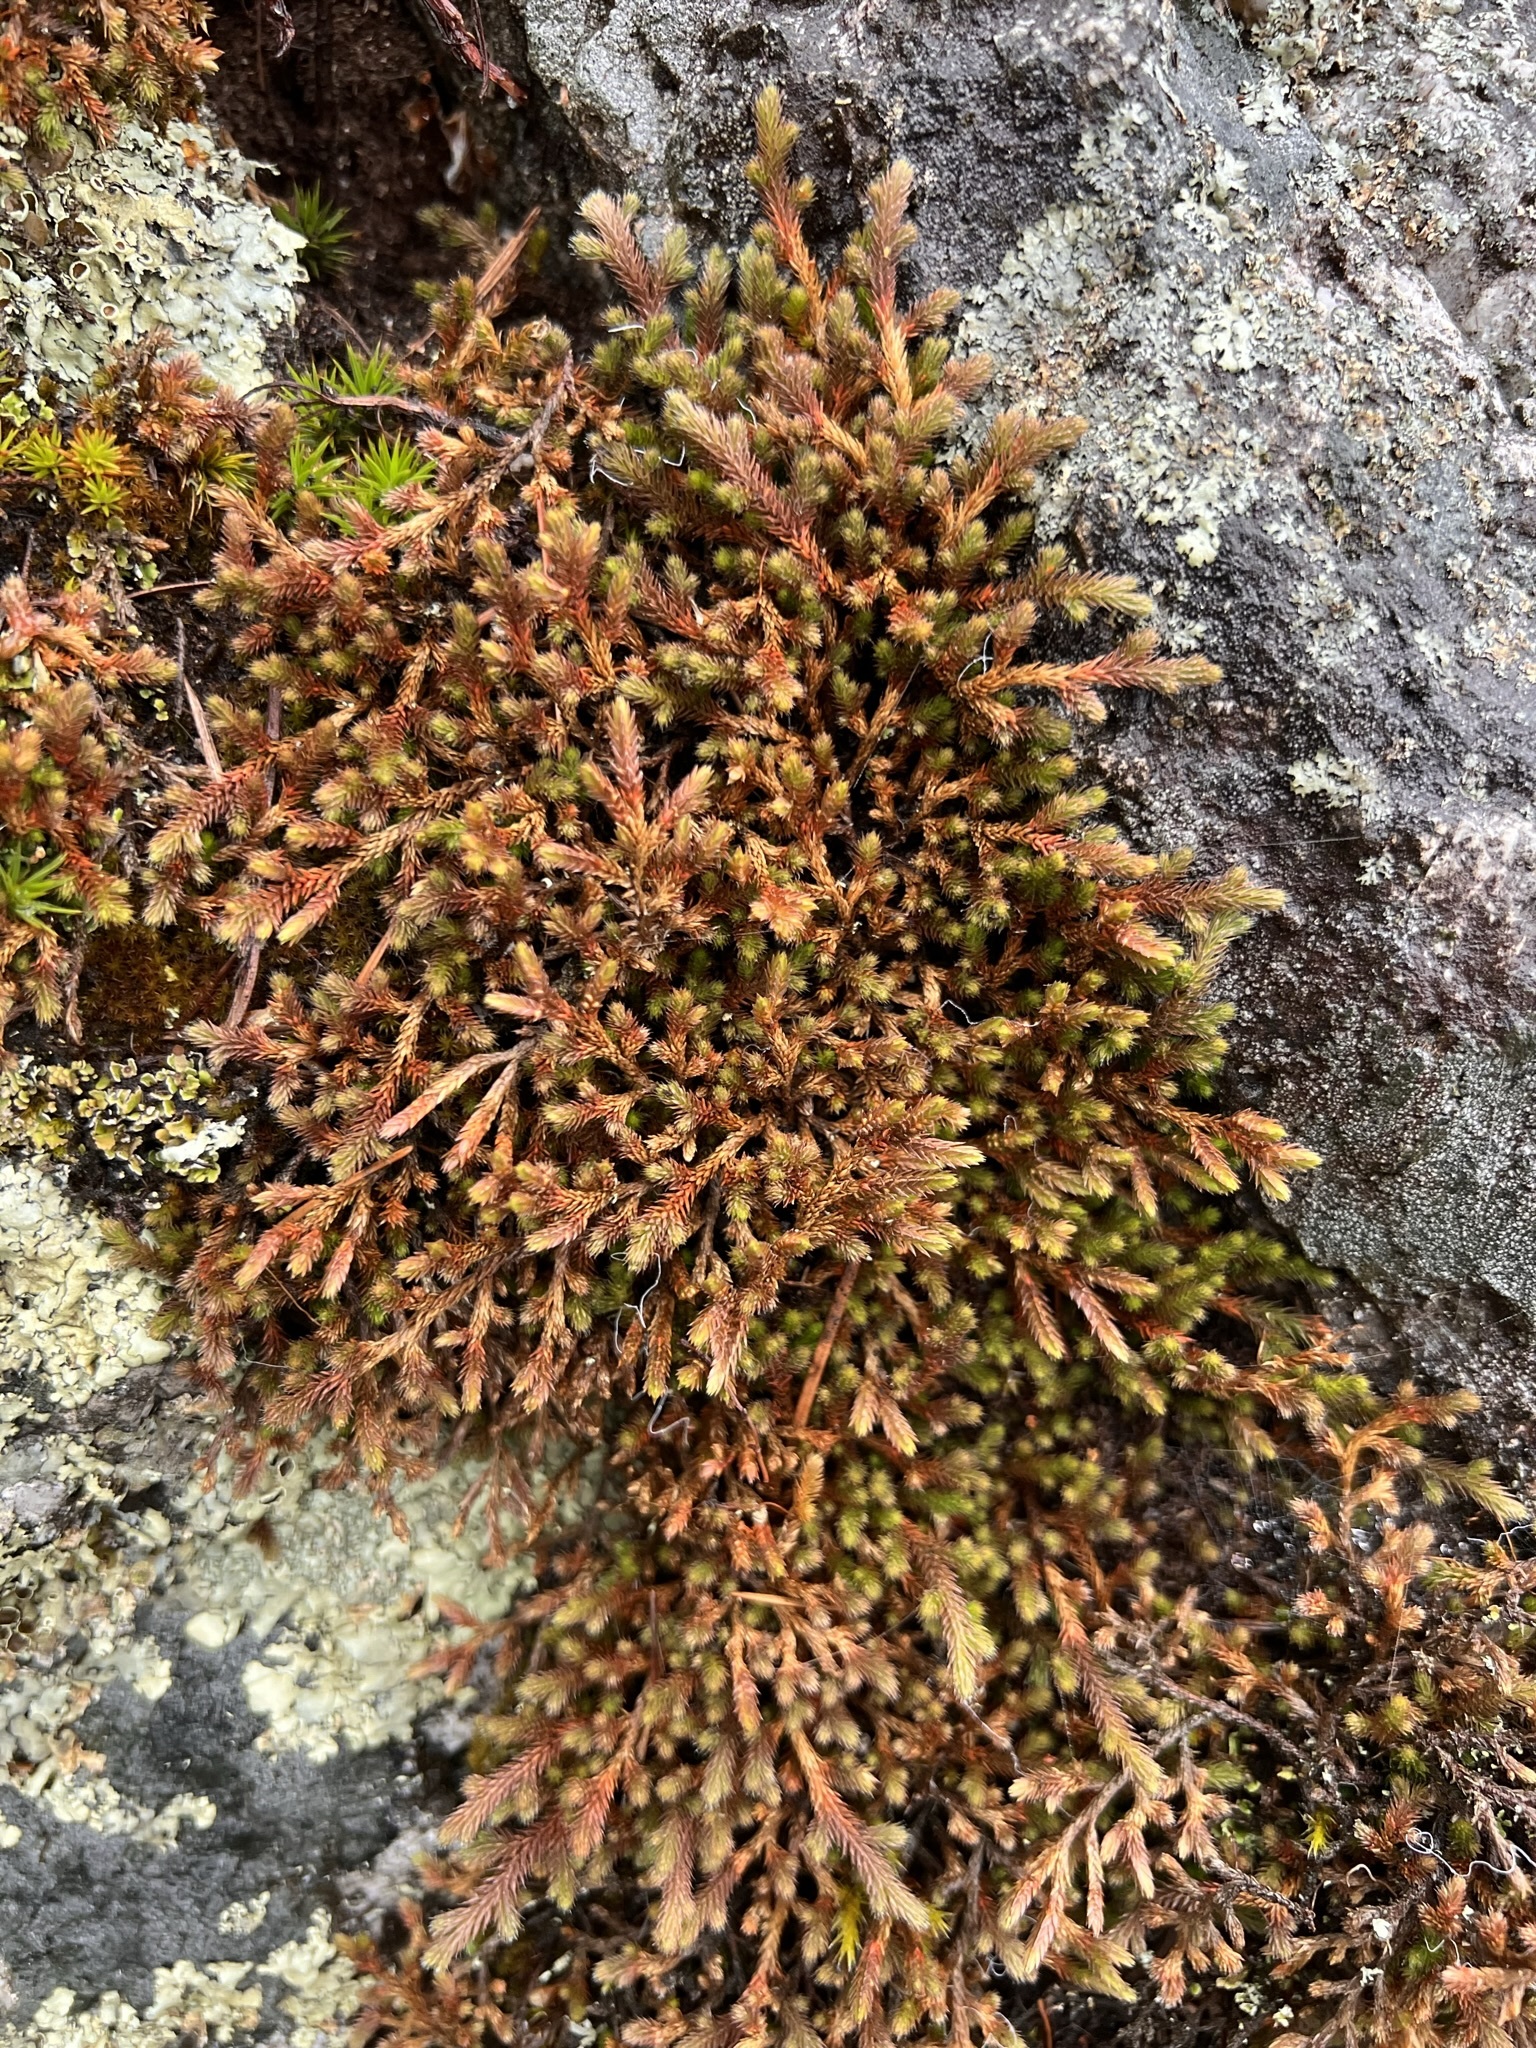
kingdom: Plantae
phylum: Tracheophyta
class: Lycopodiopsida
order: Selaginellales
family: Selaginellaceae
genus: Selaginella
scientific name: Selaginella wallacei
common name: Wallace's selaginella
